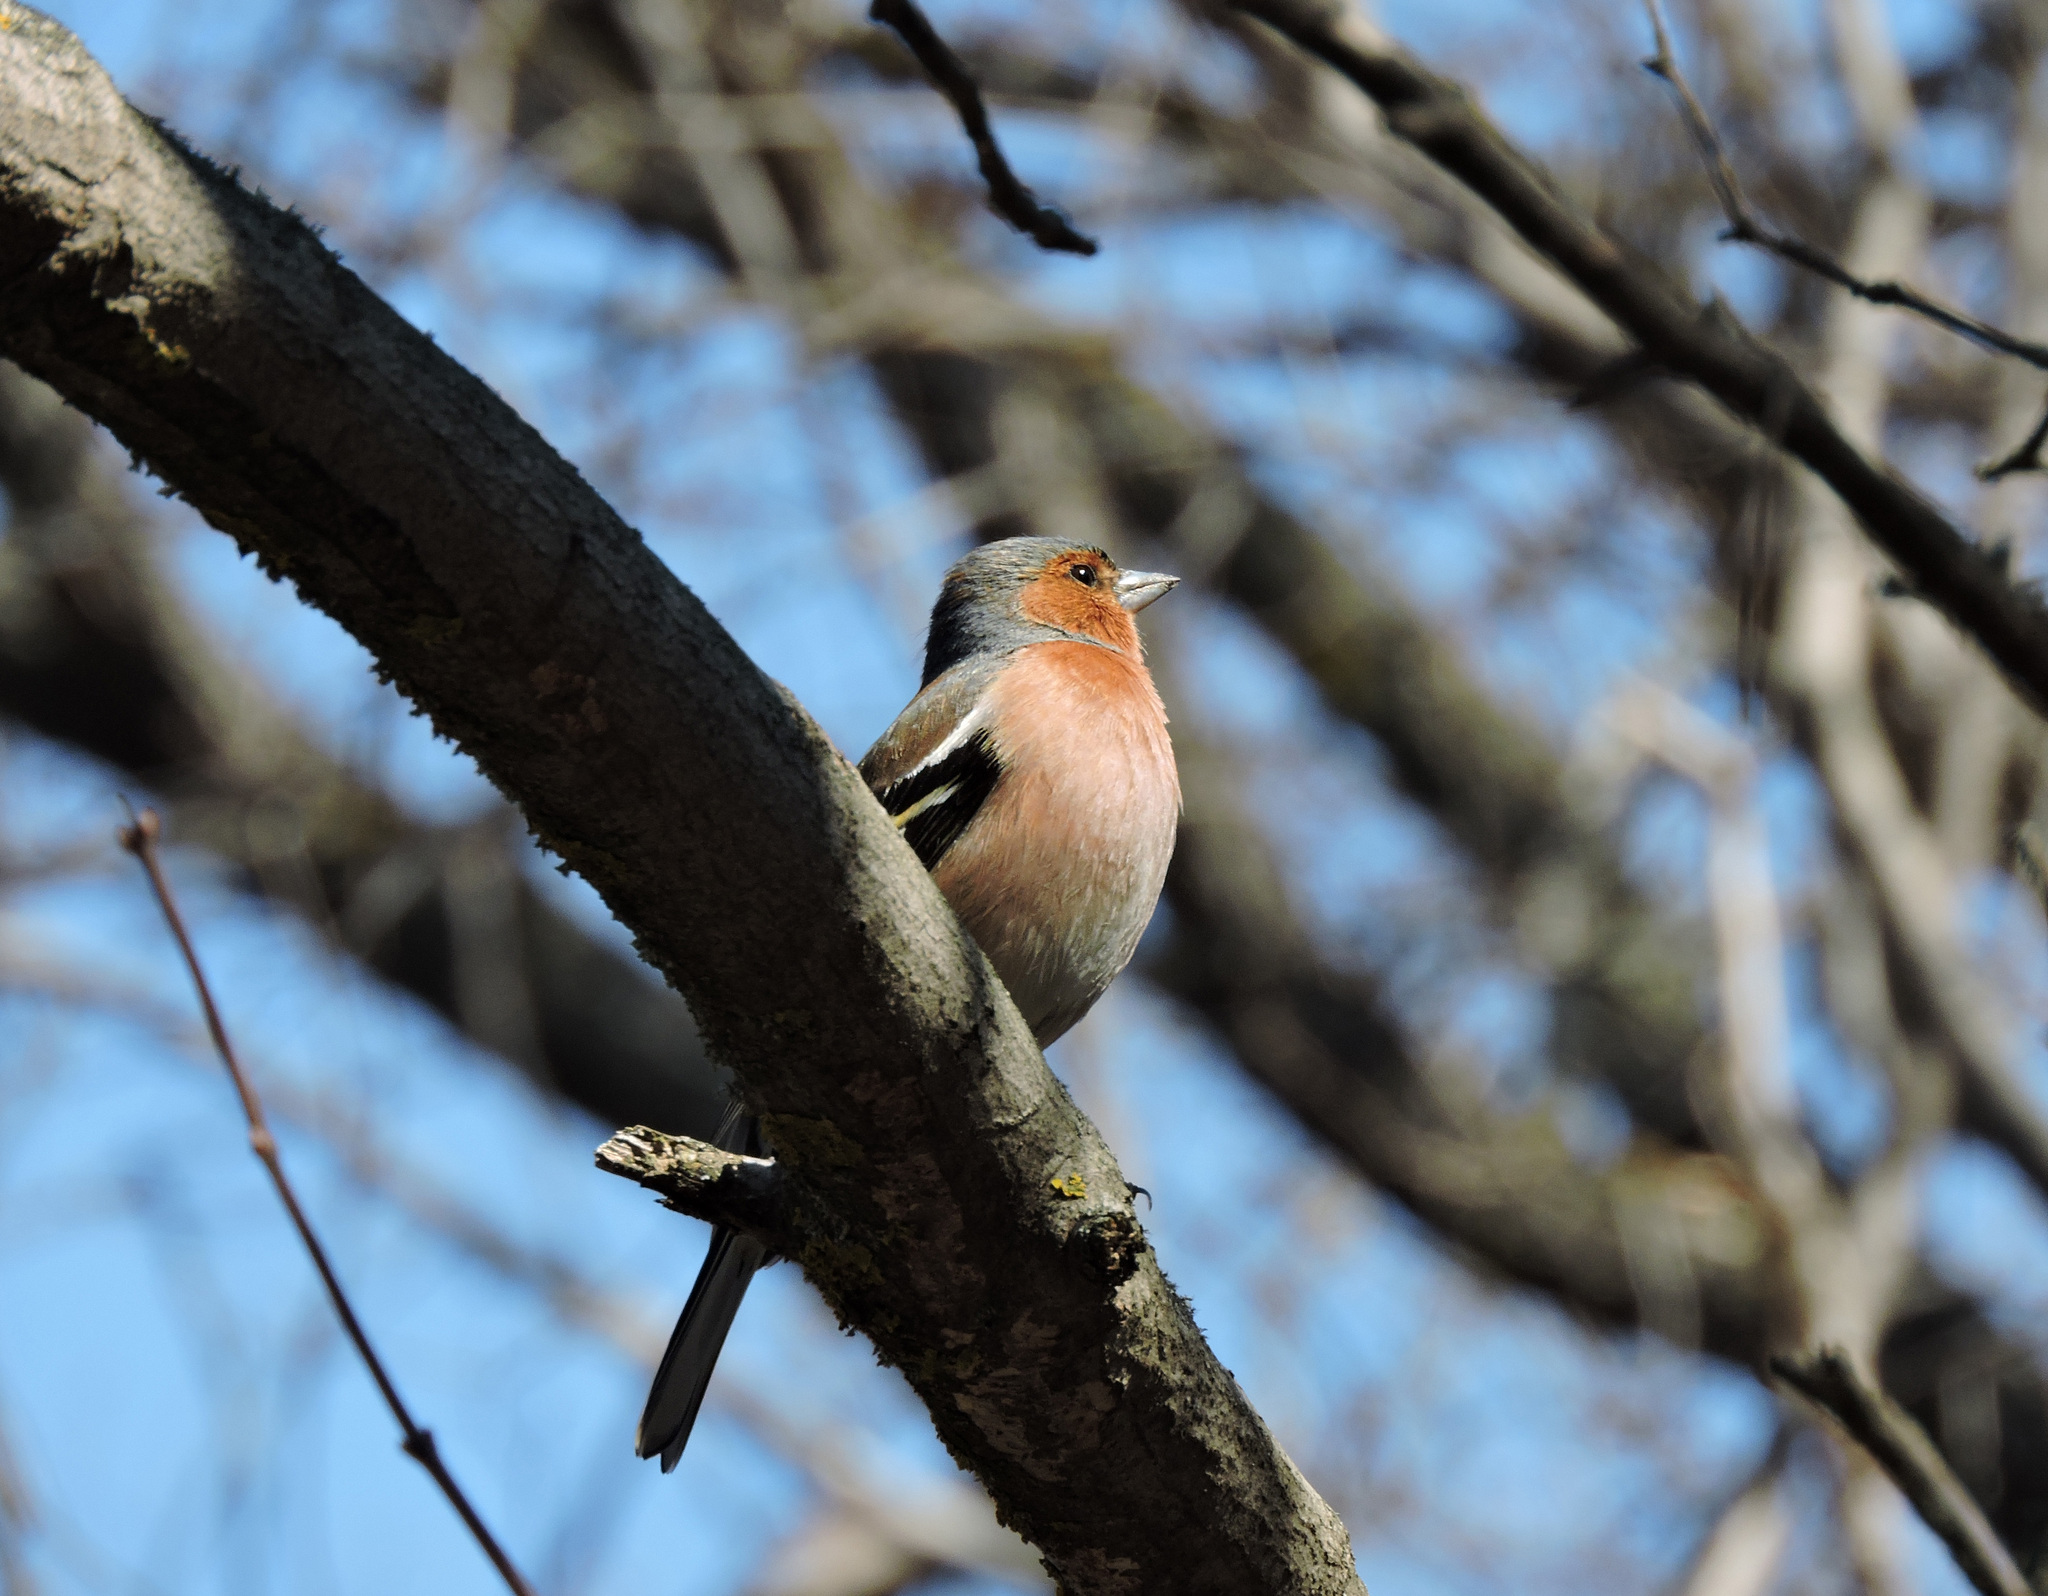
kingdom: Animalia
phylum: Chordata
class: Aves
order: Passeriformes
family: Fringillidae
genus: Fringilla
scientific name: Fringilla coelebs
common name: Common chaffinch
